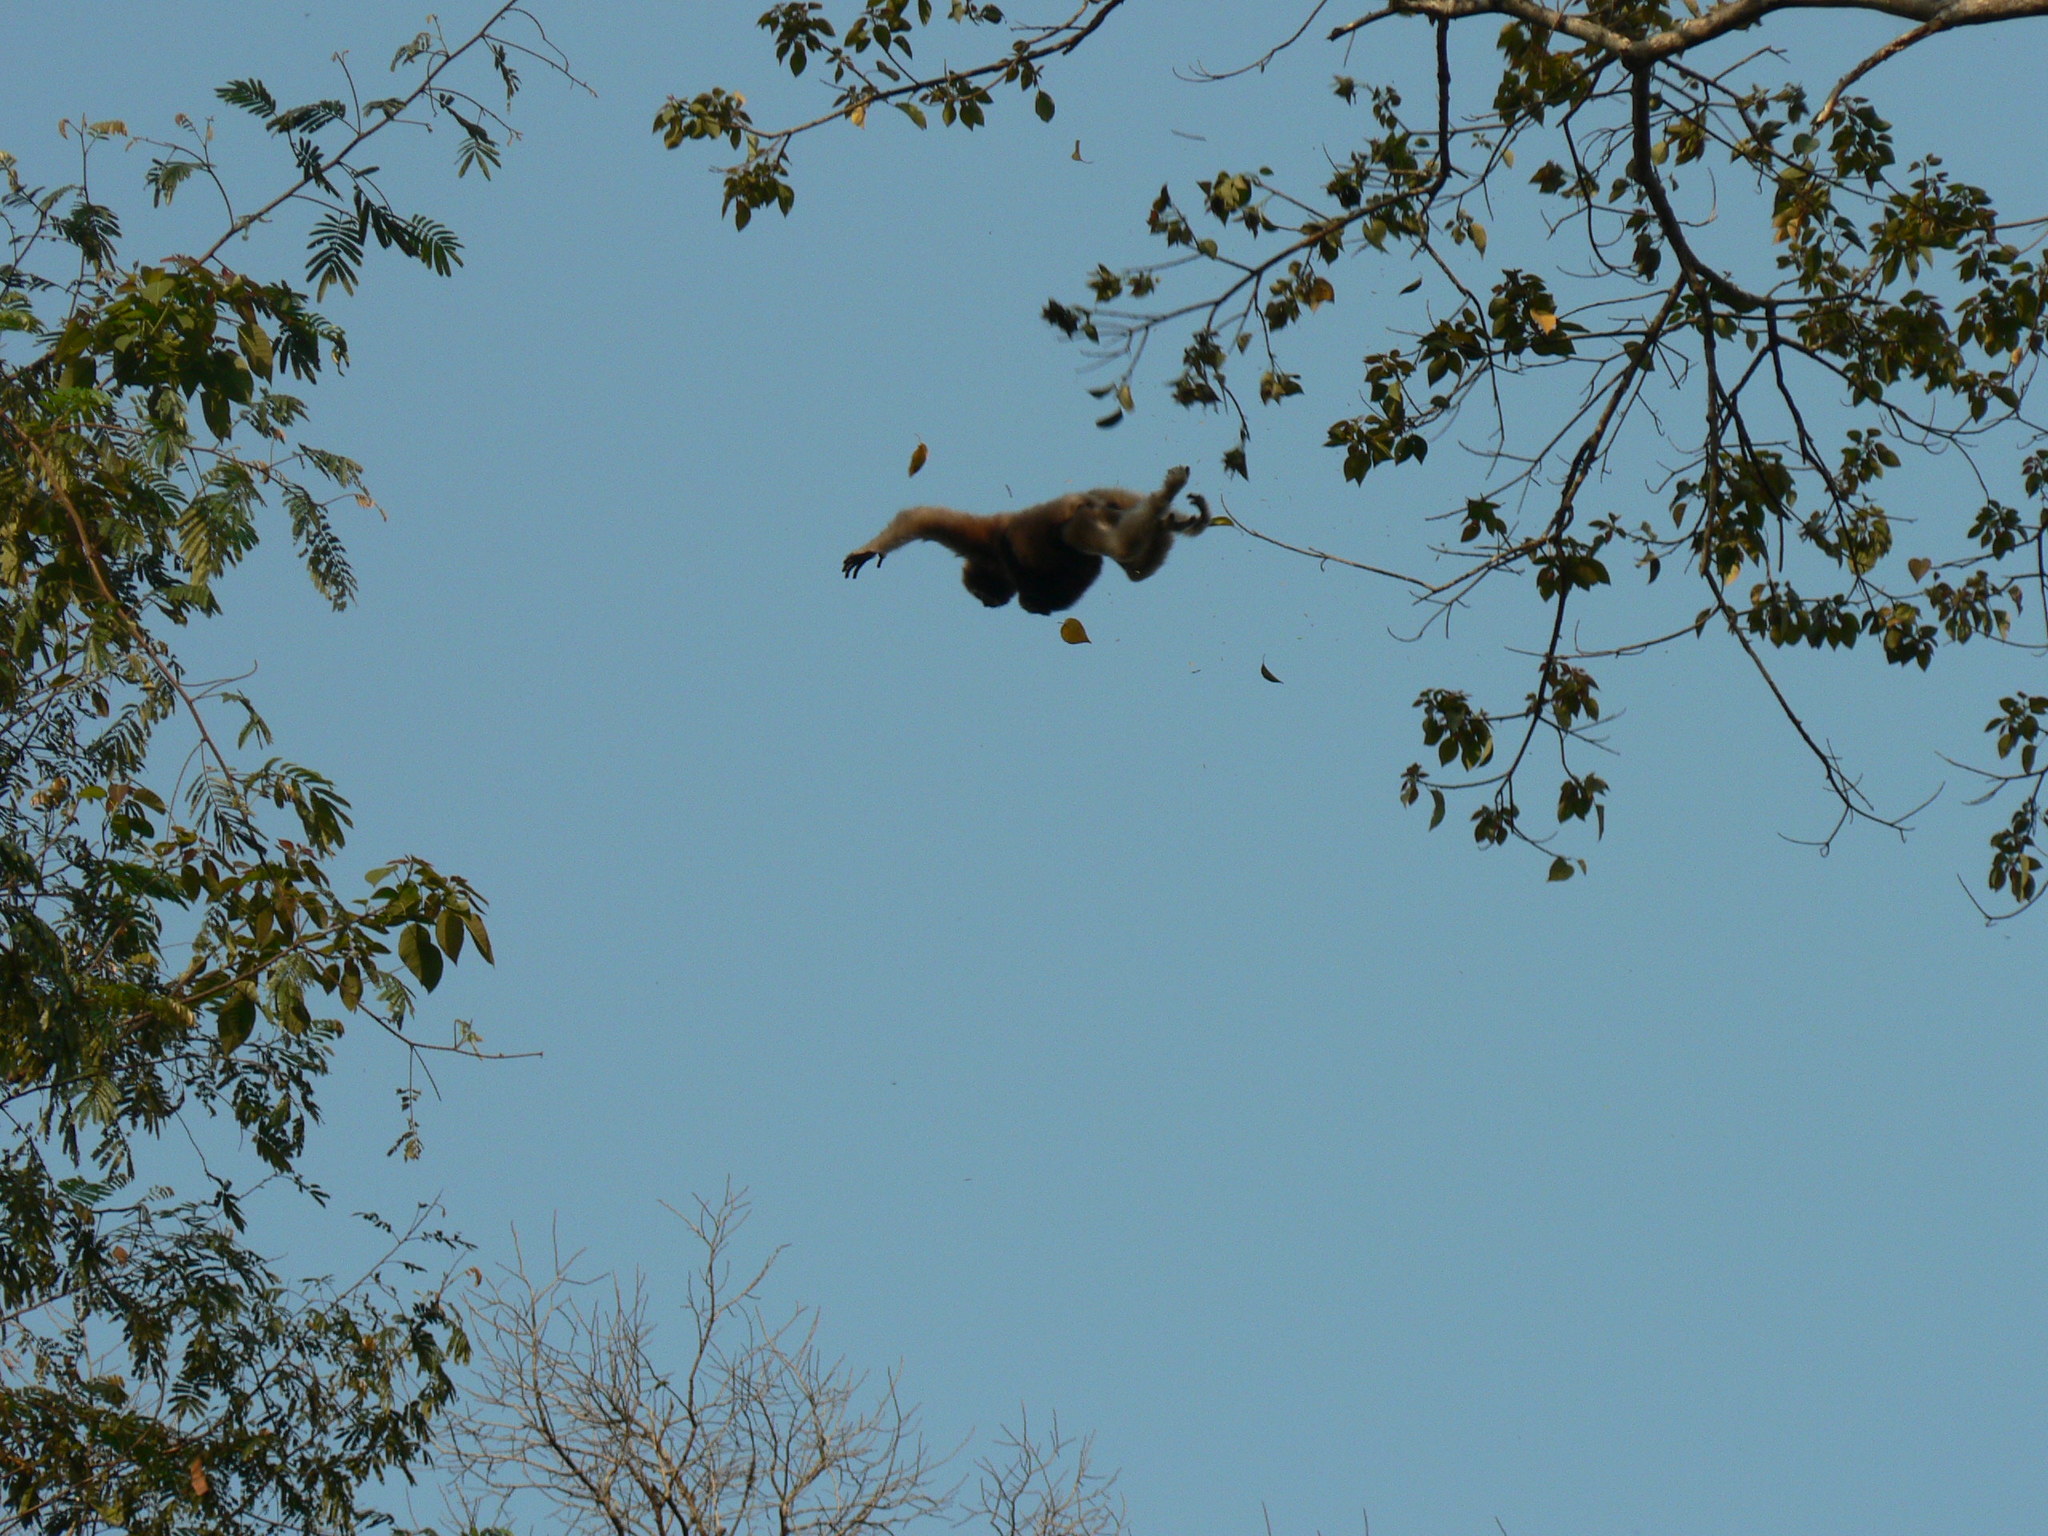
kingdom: Animalia
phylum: Chordata
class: Mammalia
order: Primates
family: Hylobatidae
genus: Hoolock
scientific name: Hoolock hoolock
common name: Western hoolock gibbon
